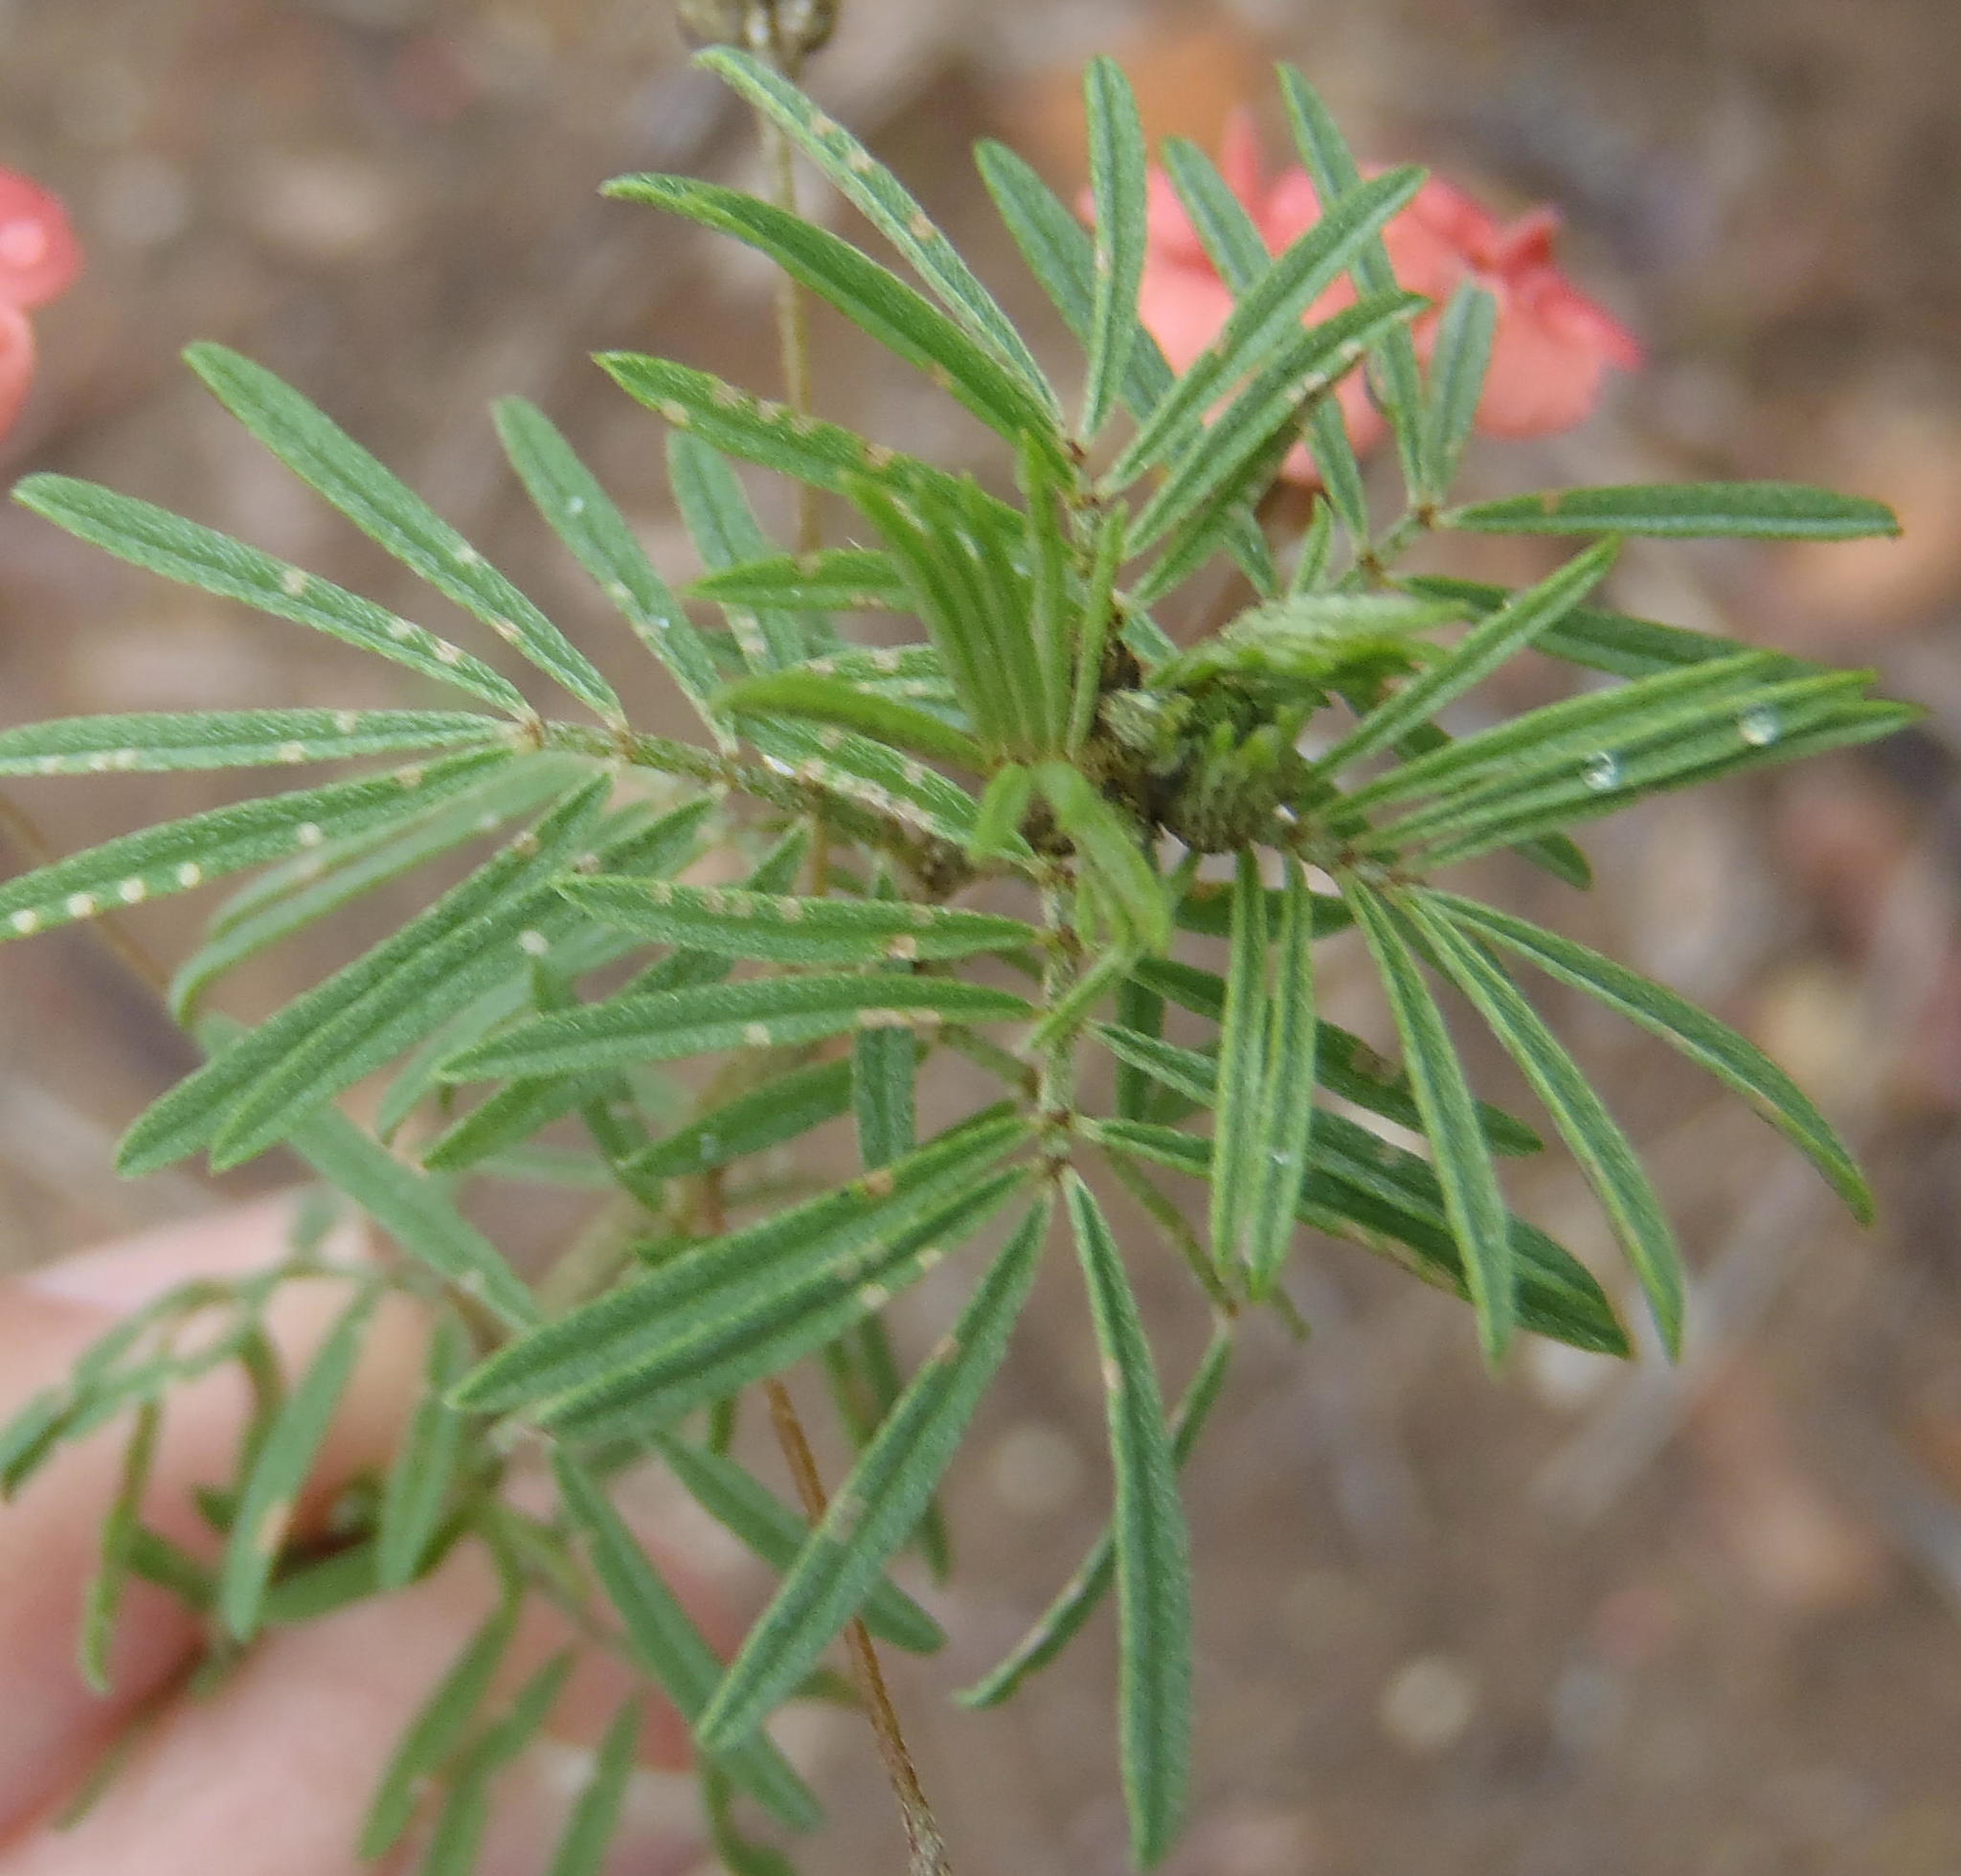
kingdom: Plantae
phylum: Tracheophyta
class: Magnoliopsida
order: Fabales
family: Fabaceae
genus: Indigofera
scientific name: Indigofera verrucosa
